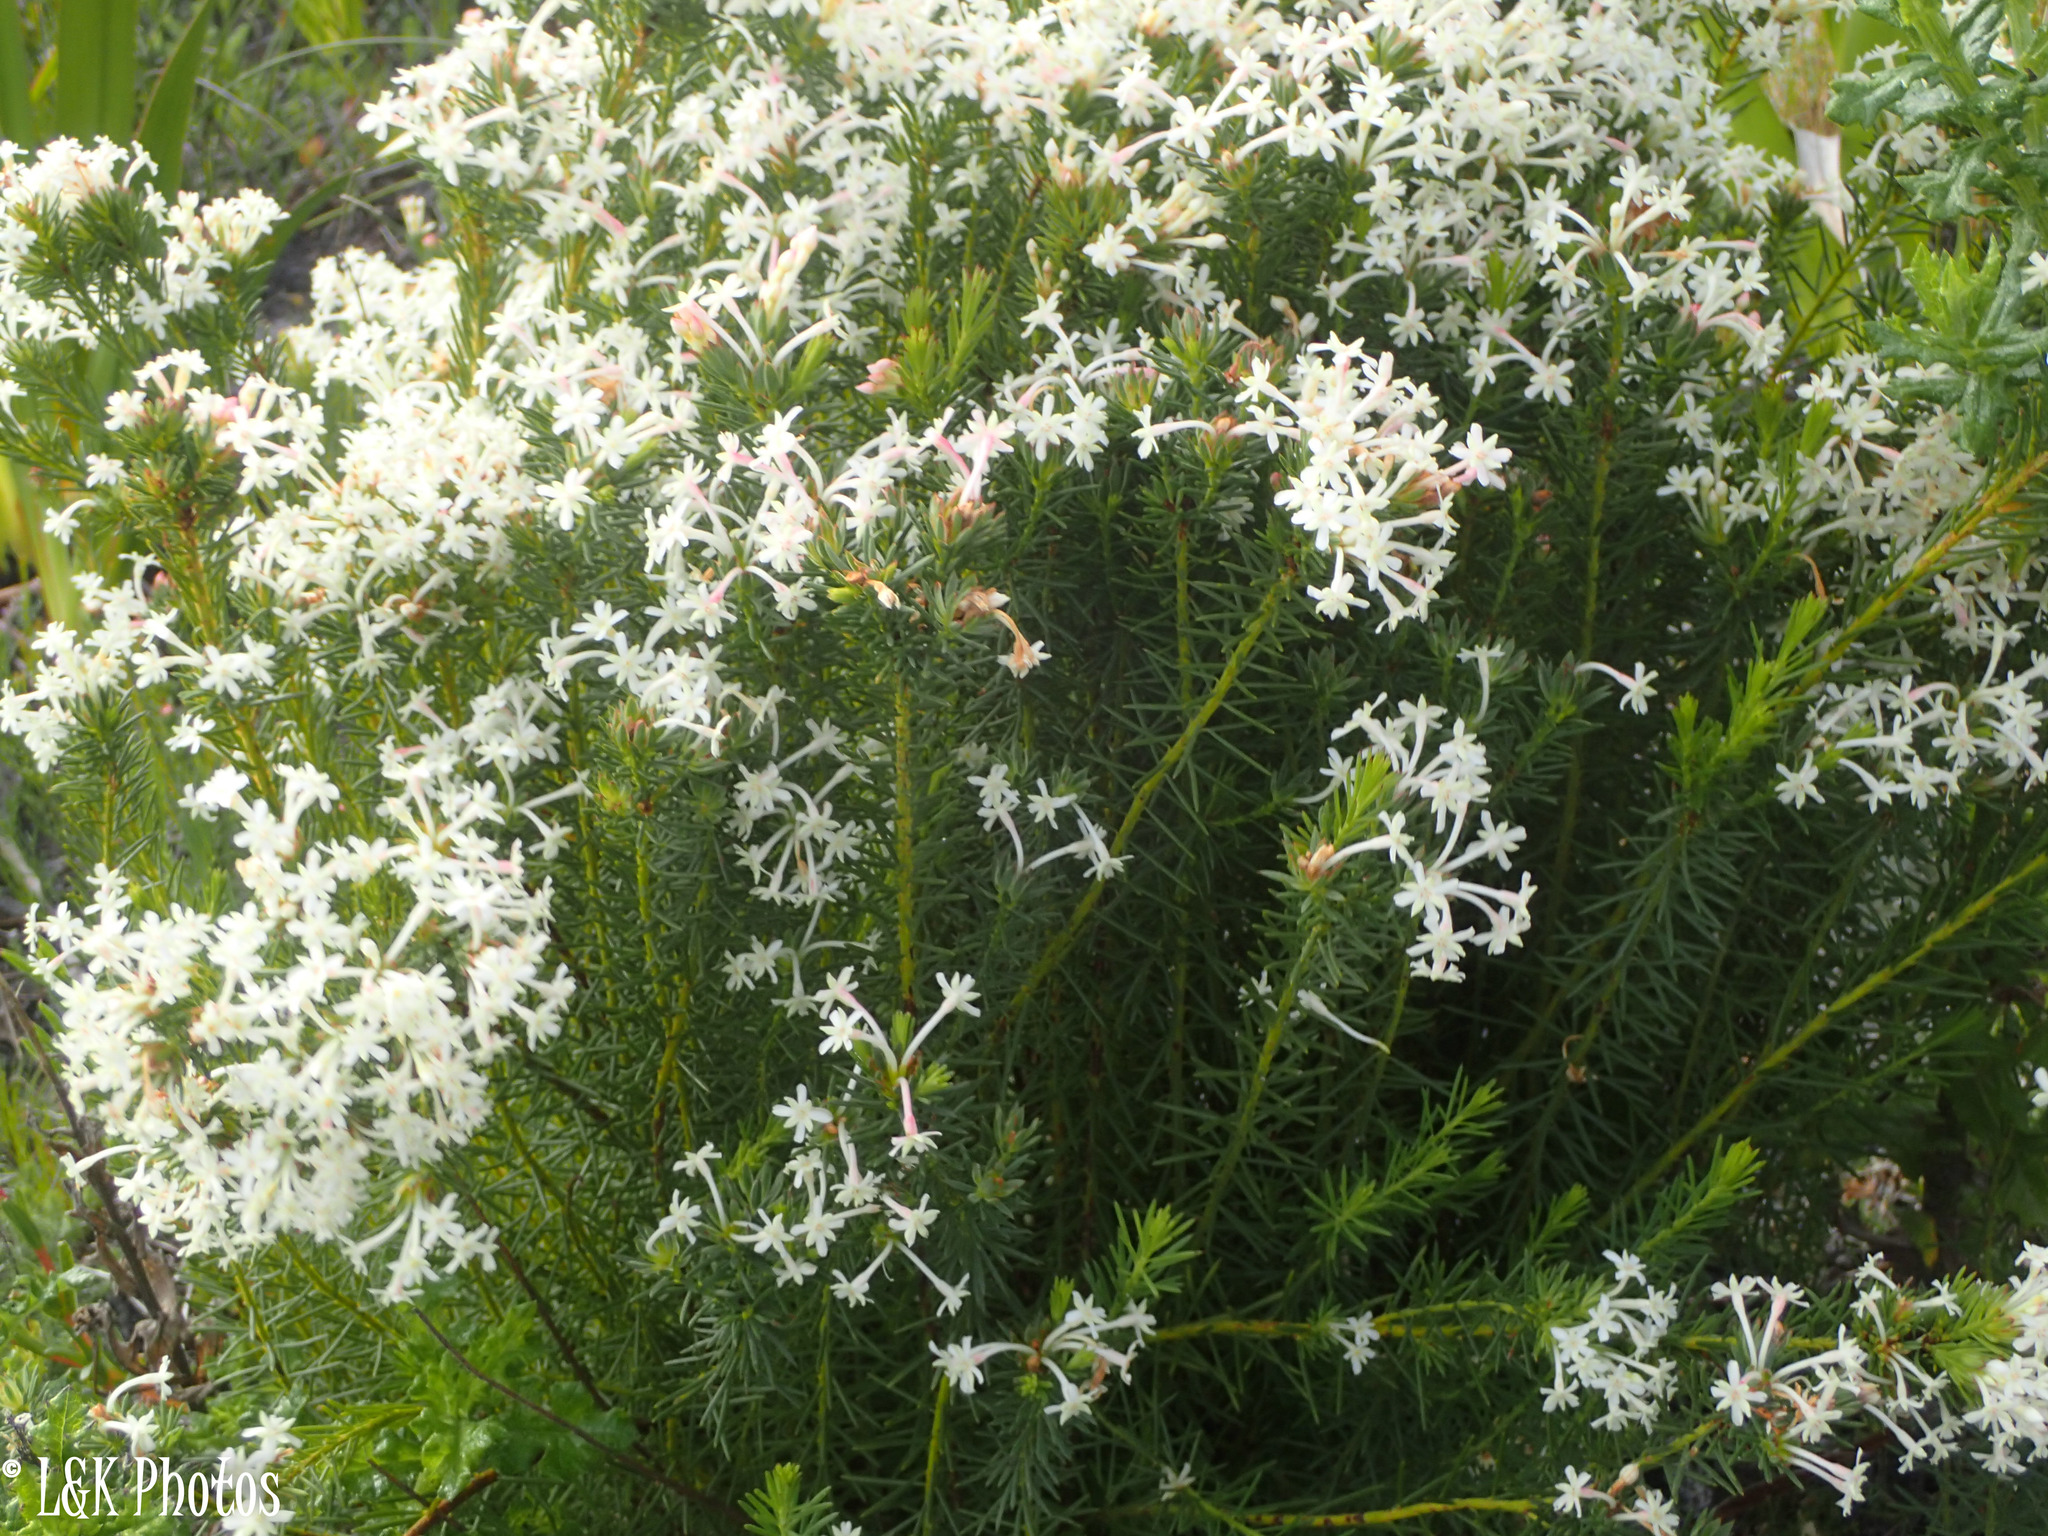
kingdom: Plantae
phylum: Tracheophyta
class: Magnoliopsida
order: Malvales
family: Thymelaeaceae
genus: Gnidia
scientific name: Gnidia pinifolia
